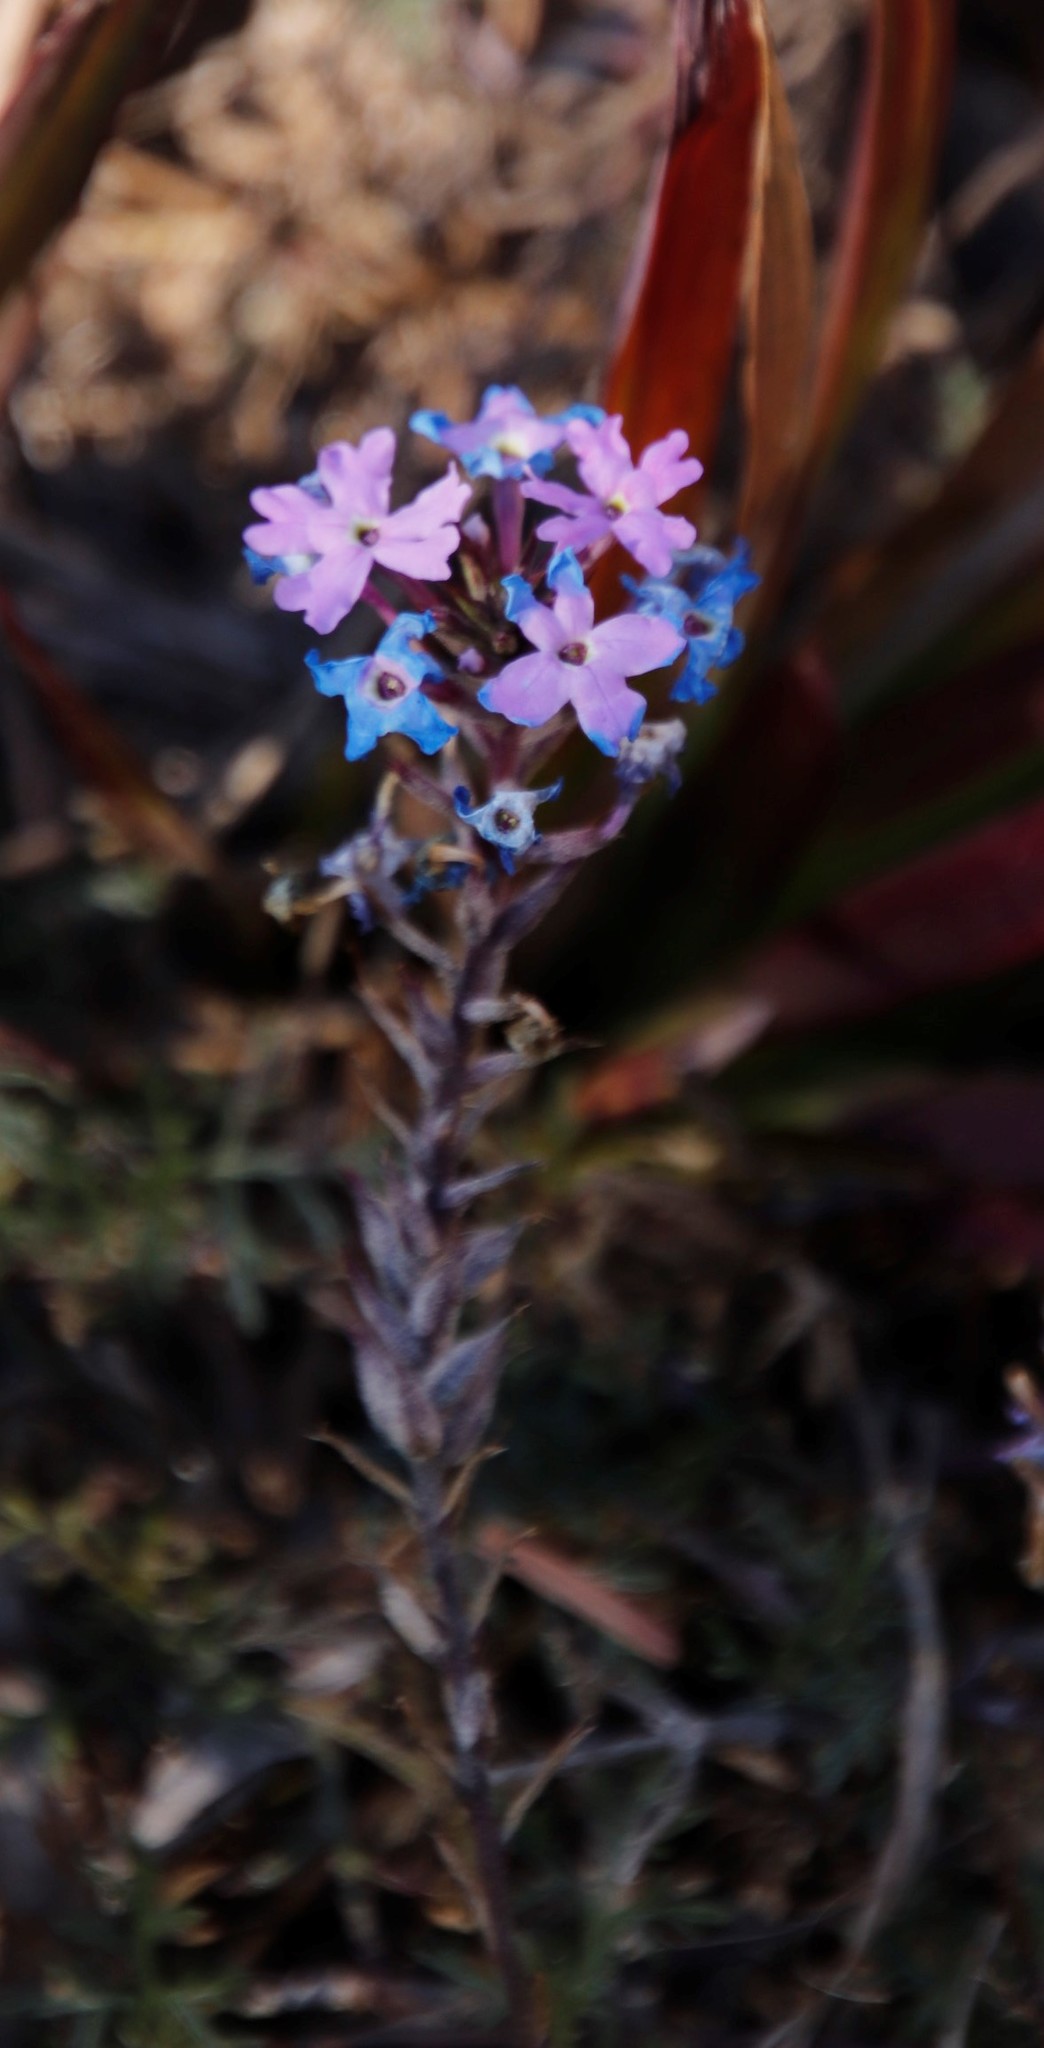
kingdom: Plantae
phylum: Tracheophyta
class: Magnoliopsida
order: Lamiales
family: Verbenaceae
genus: Verbena
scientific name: Verbena aristigera
